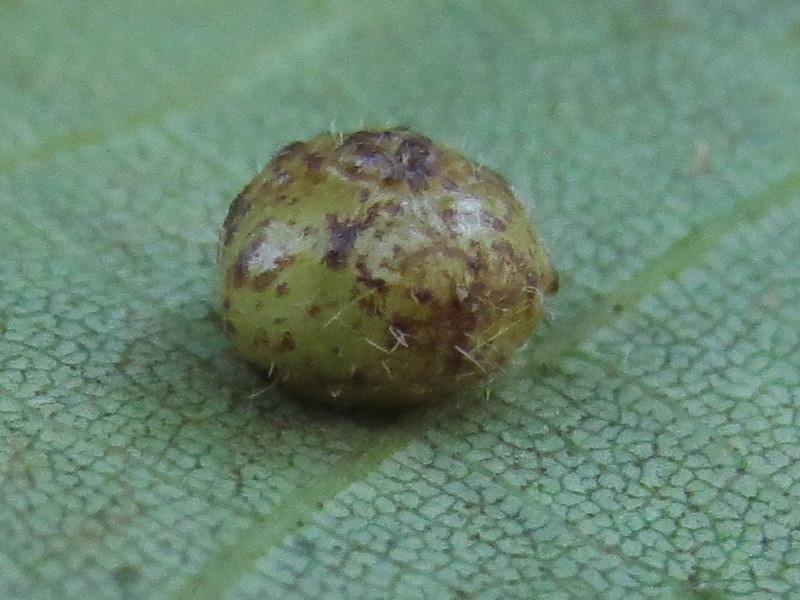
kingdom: Animalia
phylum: Arthropoda
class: Insecta
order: Diptera
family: Cecidomyiidae
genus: Caryomyia
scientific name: Caryomyia thompsoni
